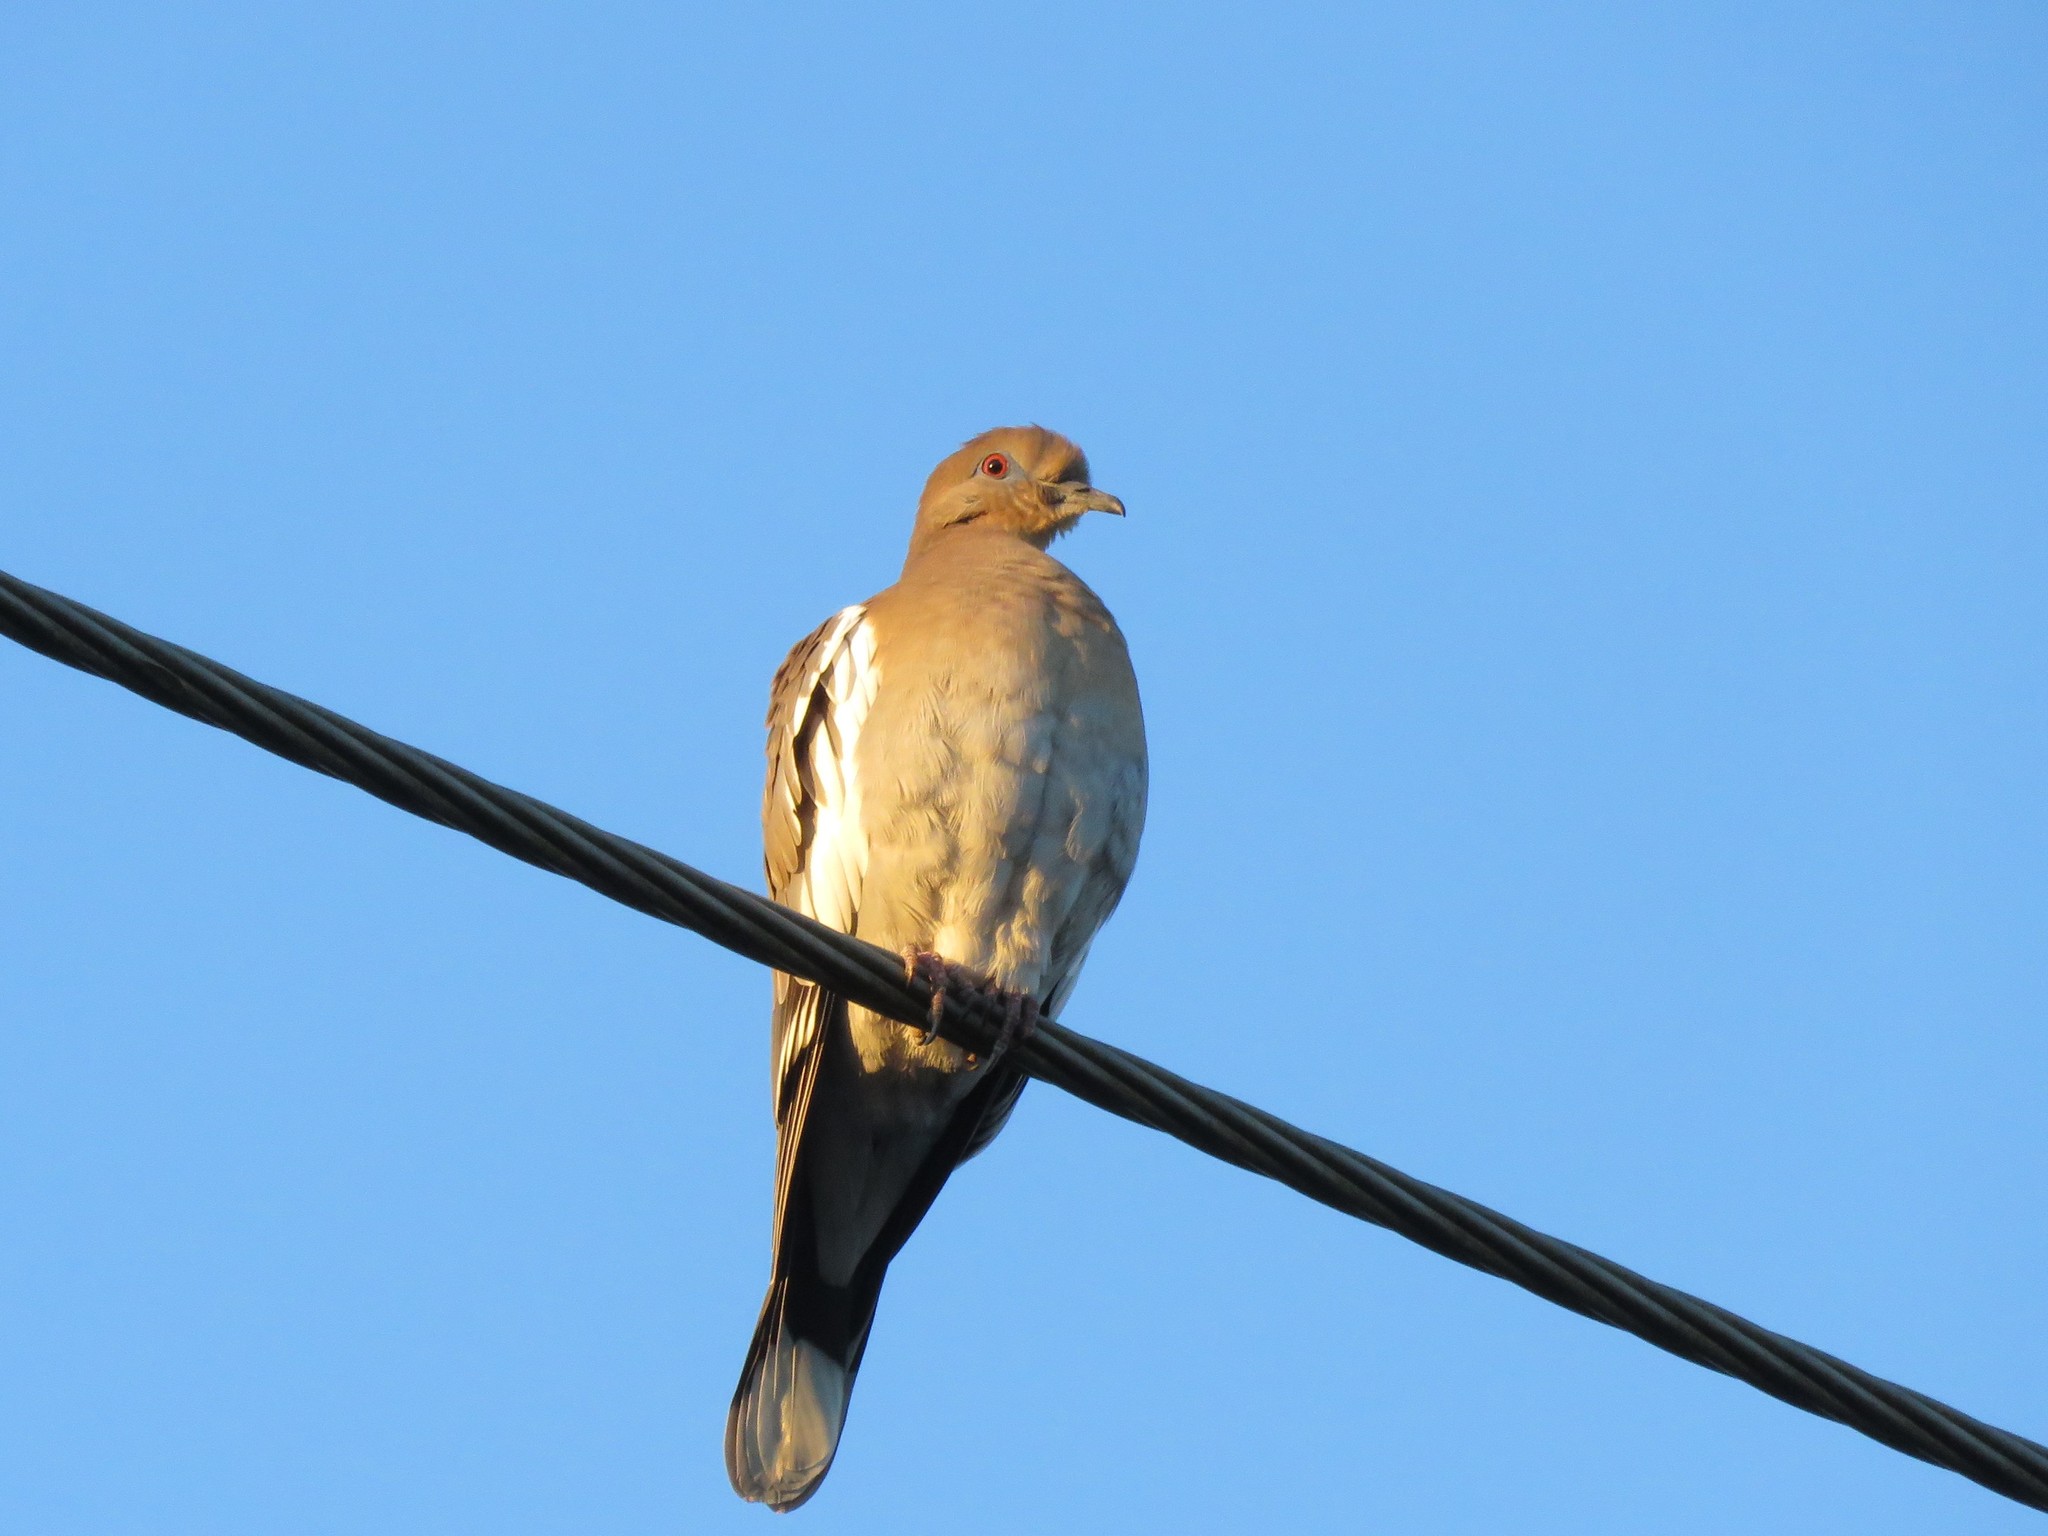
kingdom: Animalia
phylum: Chordata
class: Aves
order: Columbiformes
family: Columbidae
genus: Zenaida
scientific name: Zenaida asiatica
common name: White-winged dove
